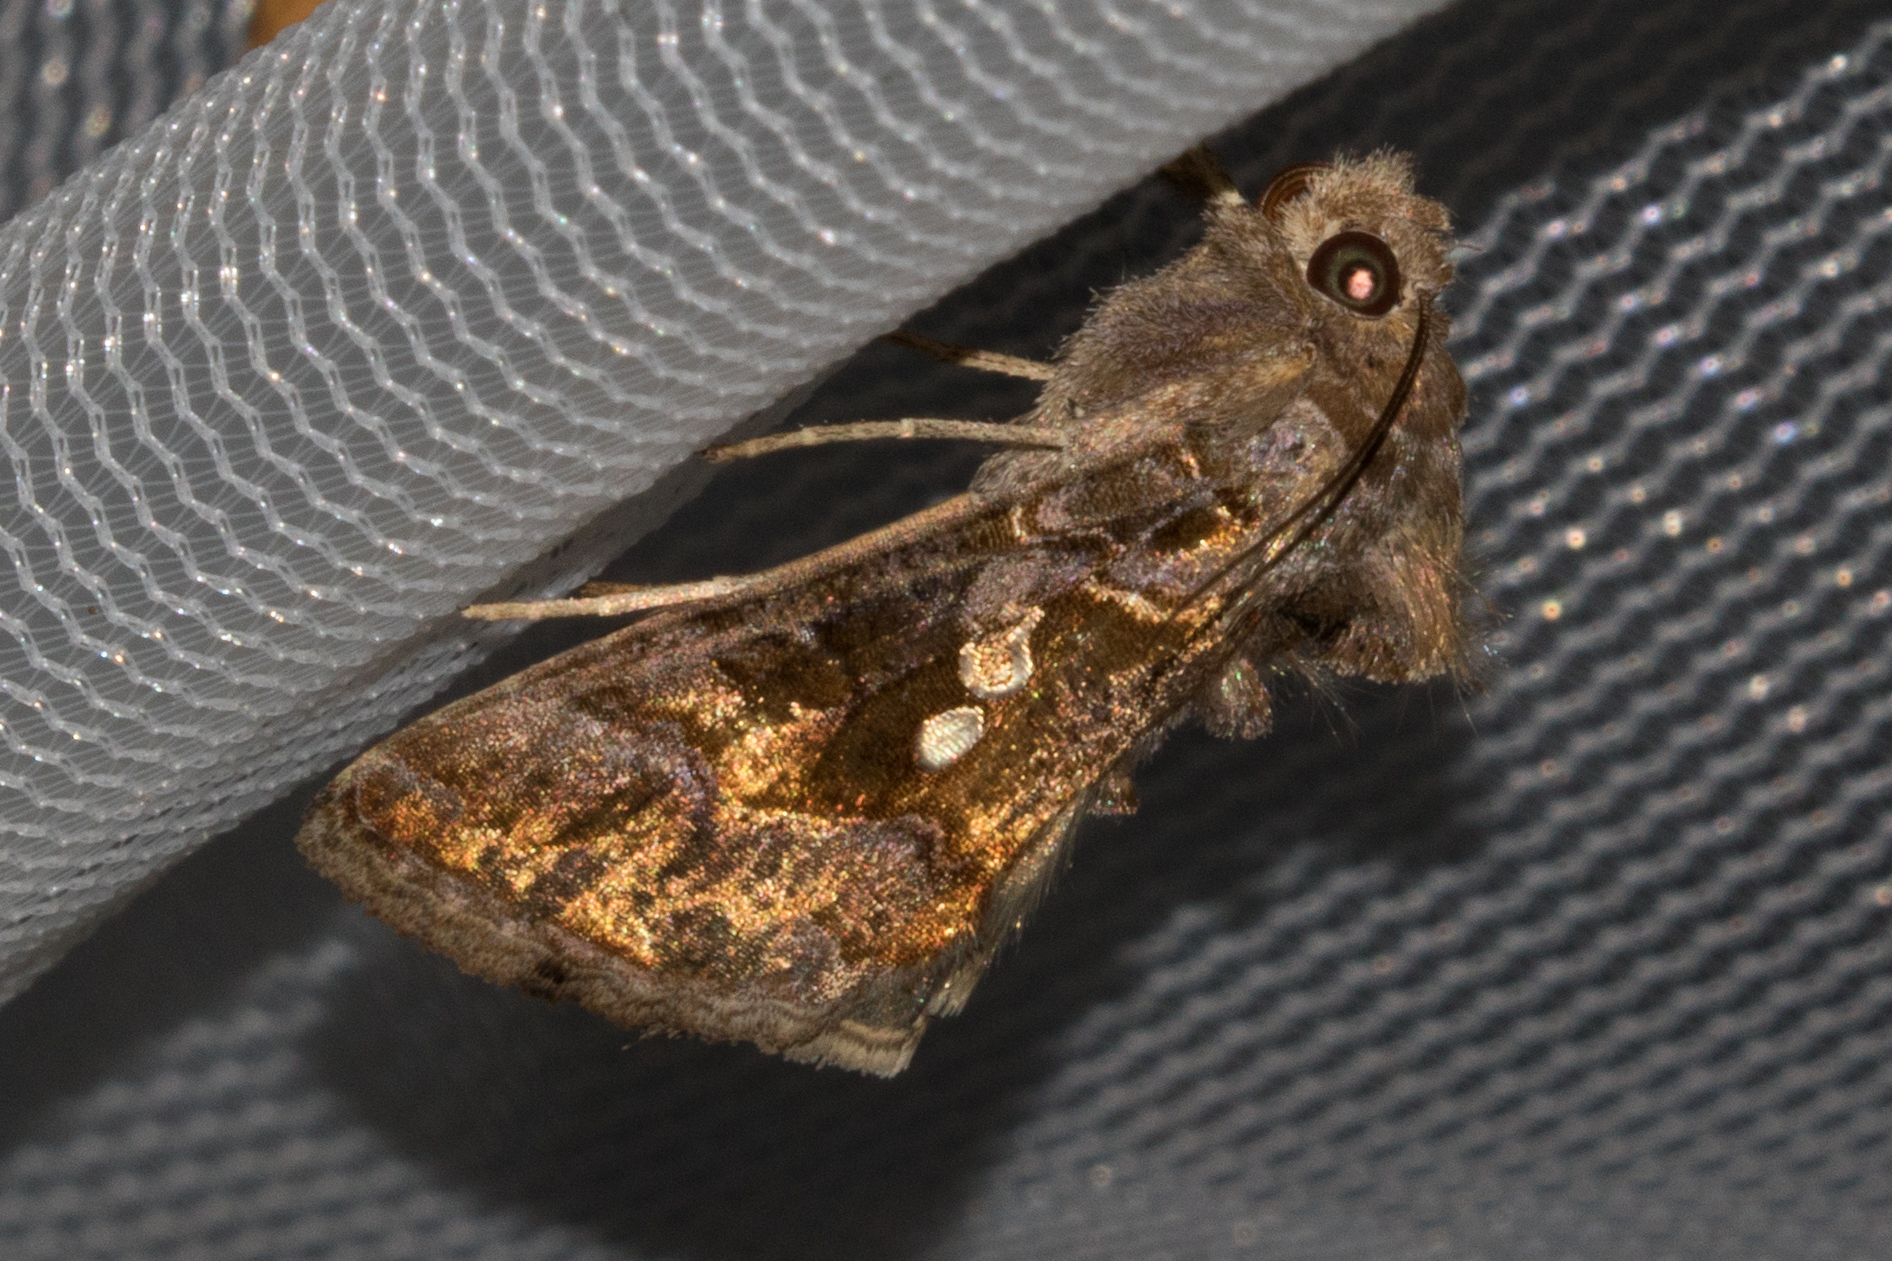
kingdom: Animalia
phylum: Arthropoda
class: Insecta
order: Lepidoptera
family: Noctuidae
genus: Chrysodeixis
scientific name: Chrysodeixis includens
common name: Cutworm moth
